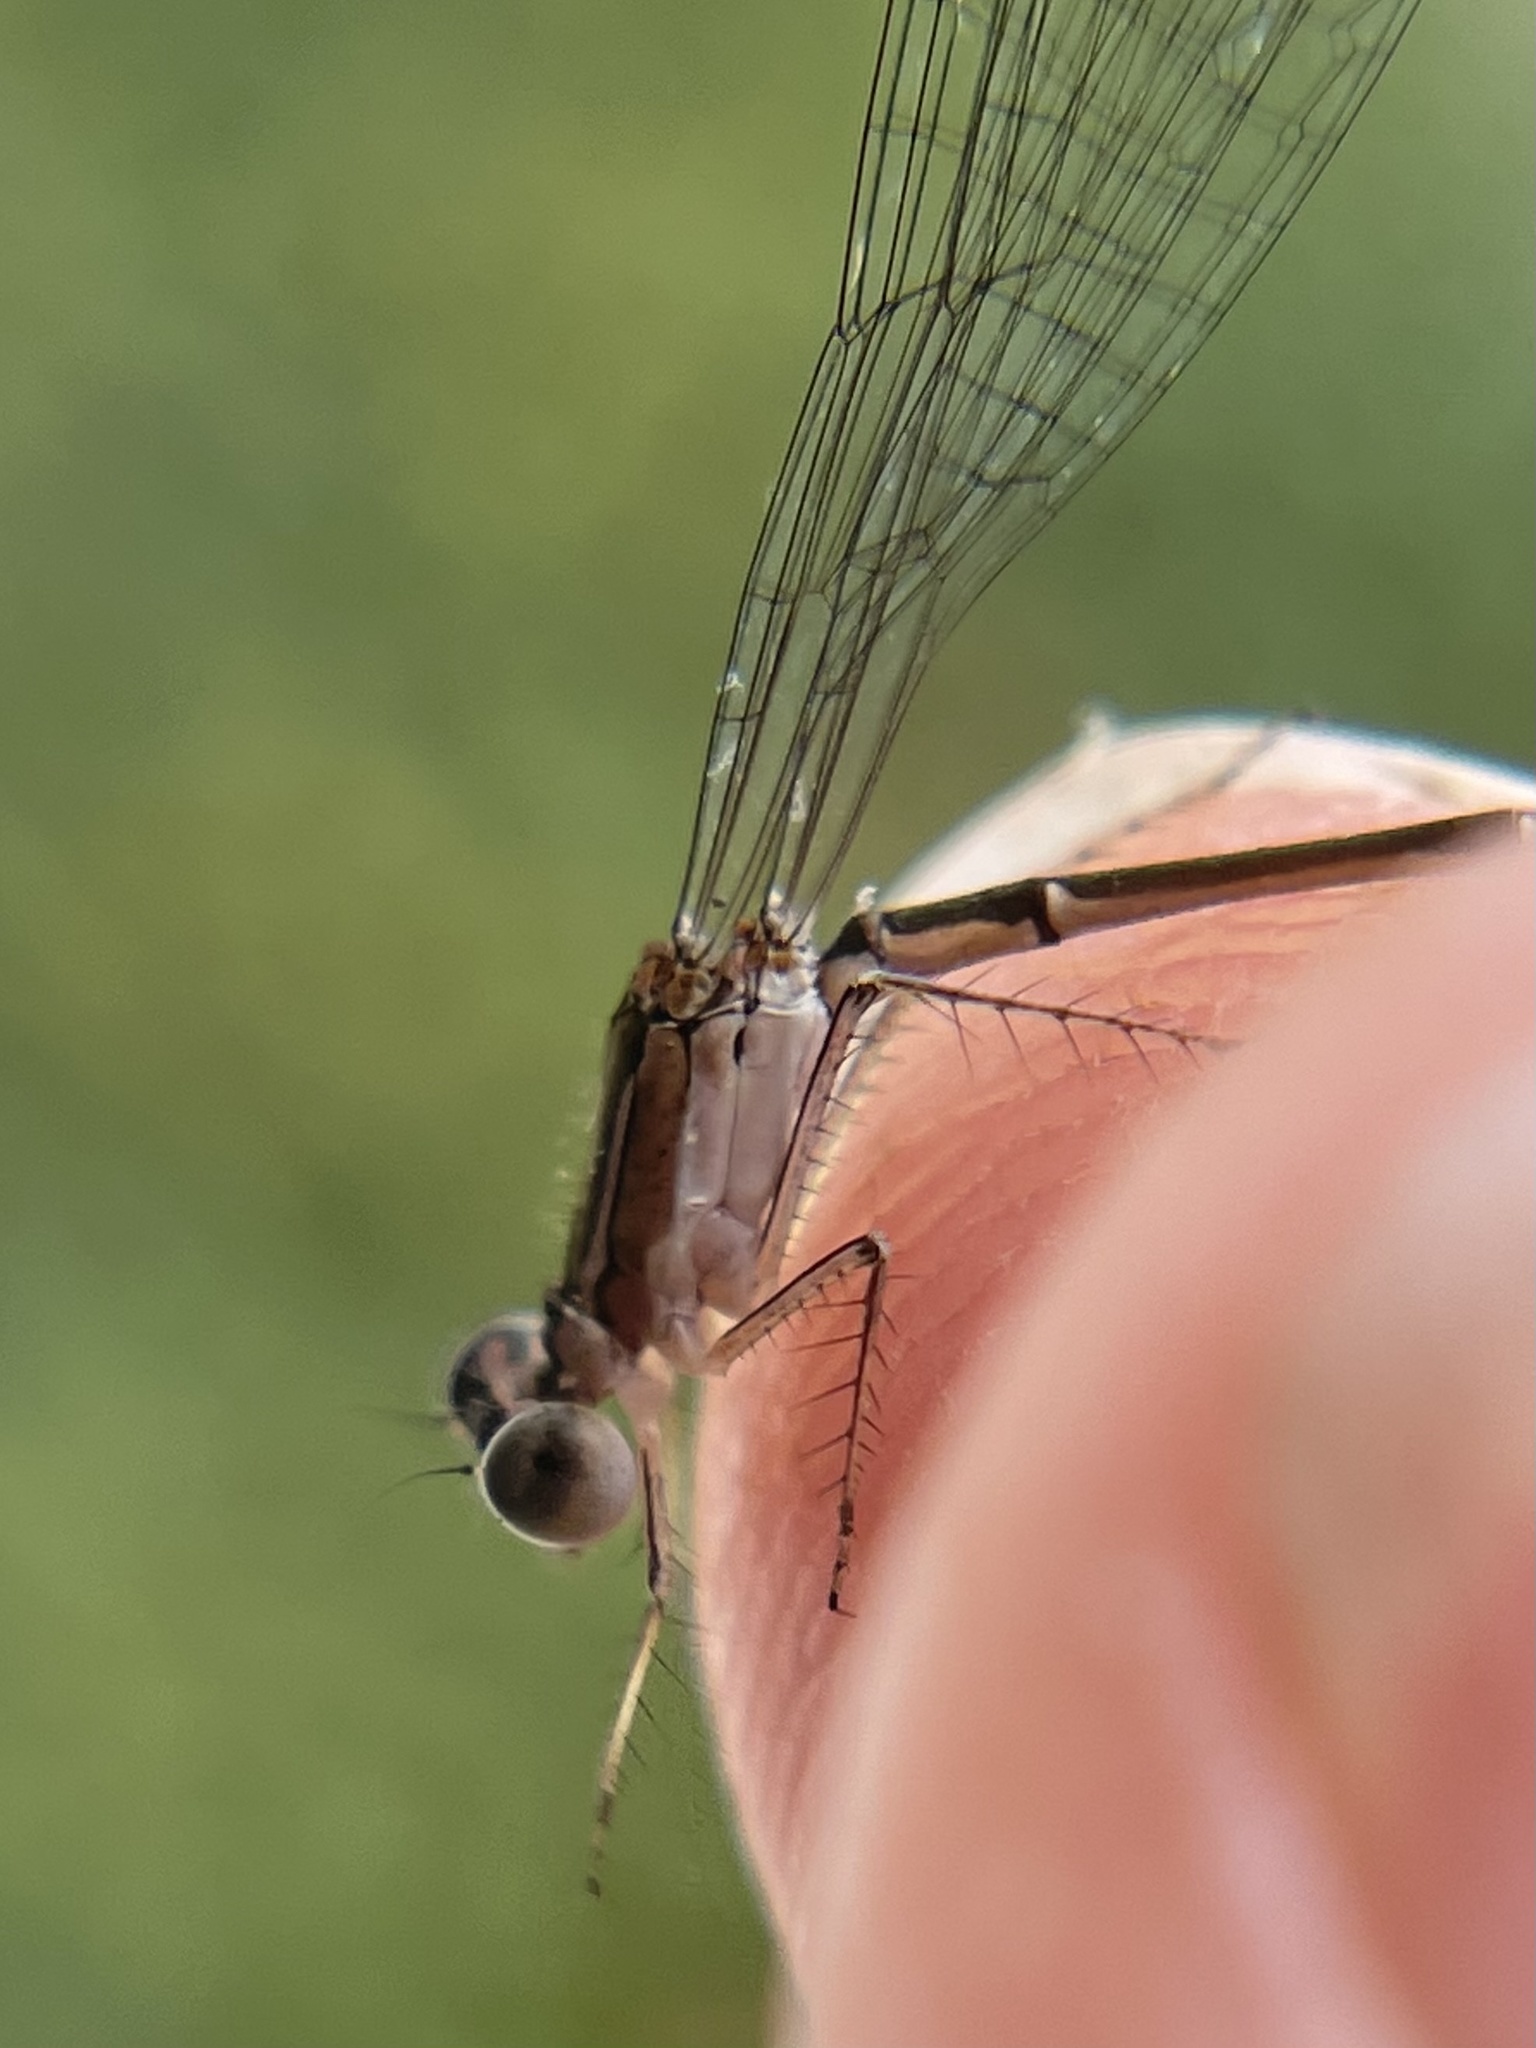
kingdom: Animalia
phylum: Arthropoda
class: Insecta
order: Odonata
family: Coenagrionidae
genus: Nehalennia
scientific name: Nehalennia pallidula
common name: Everglades sprite
